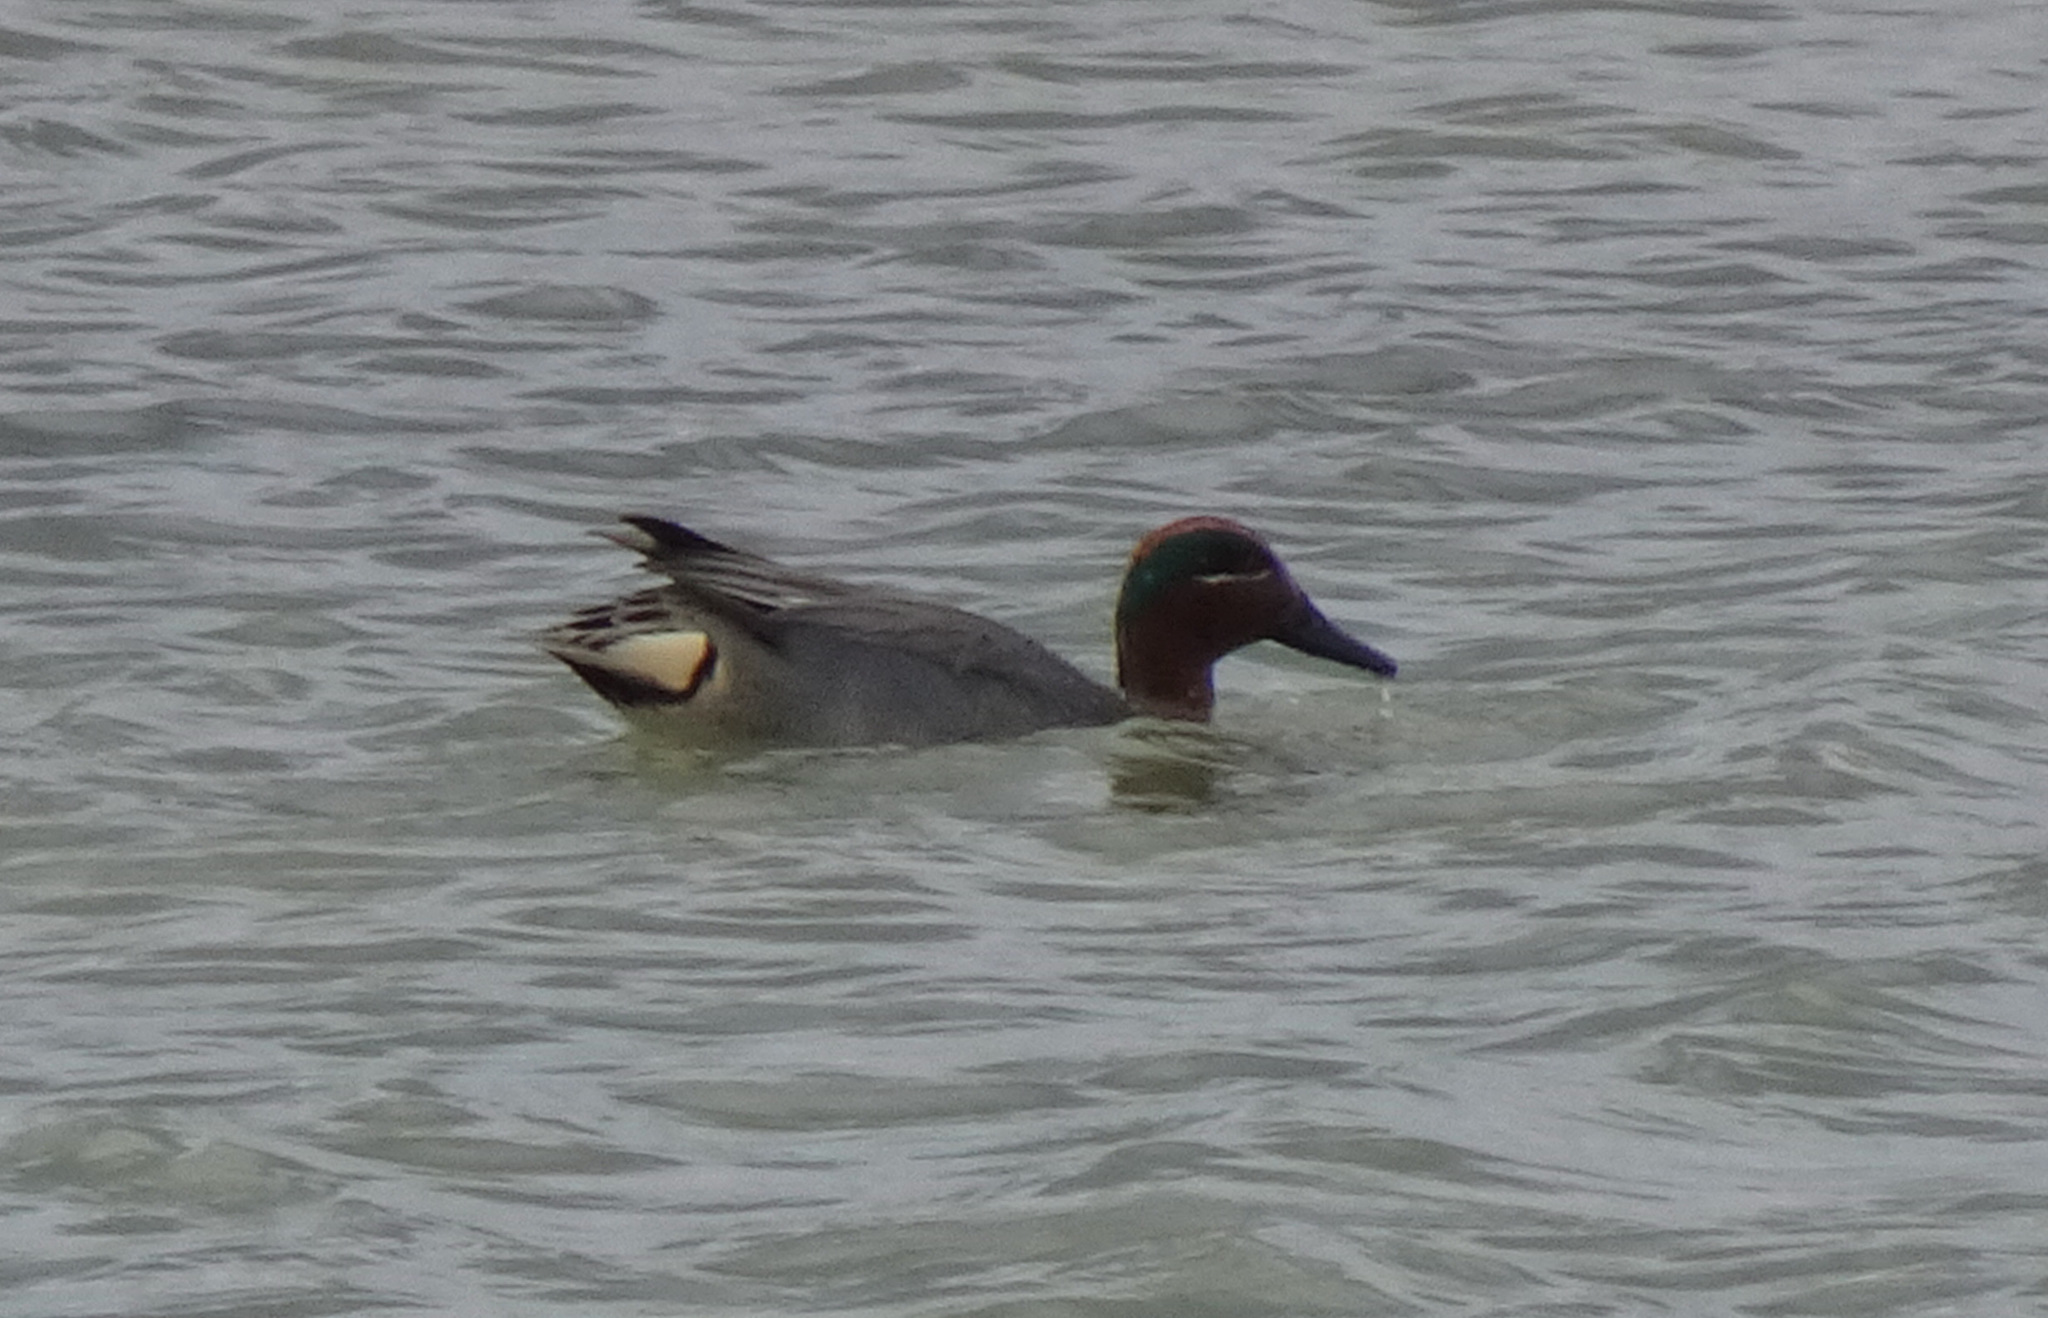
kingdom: Animalia
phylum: Chordata
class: Aves
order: Anseriformes
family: Anatidae
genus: Anas
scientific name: Anas crecca
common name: Eurasian teal
